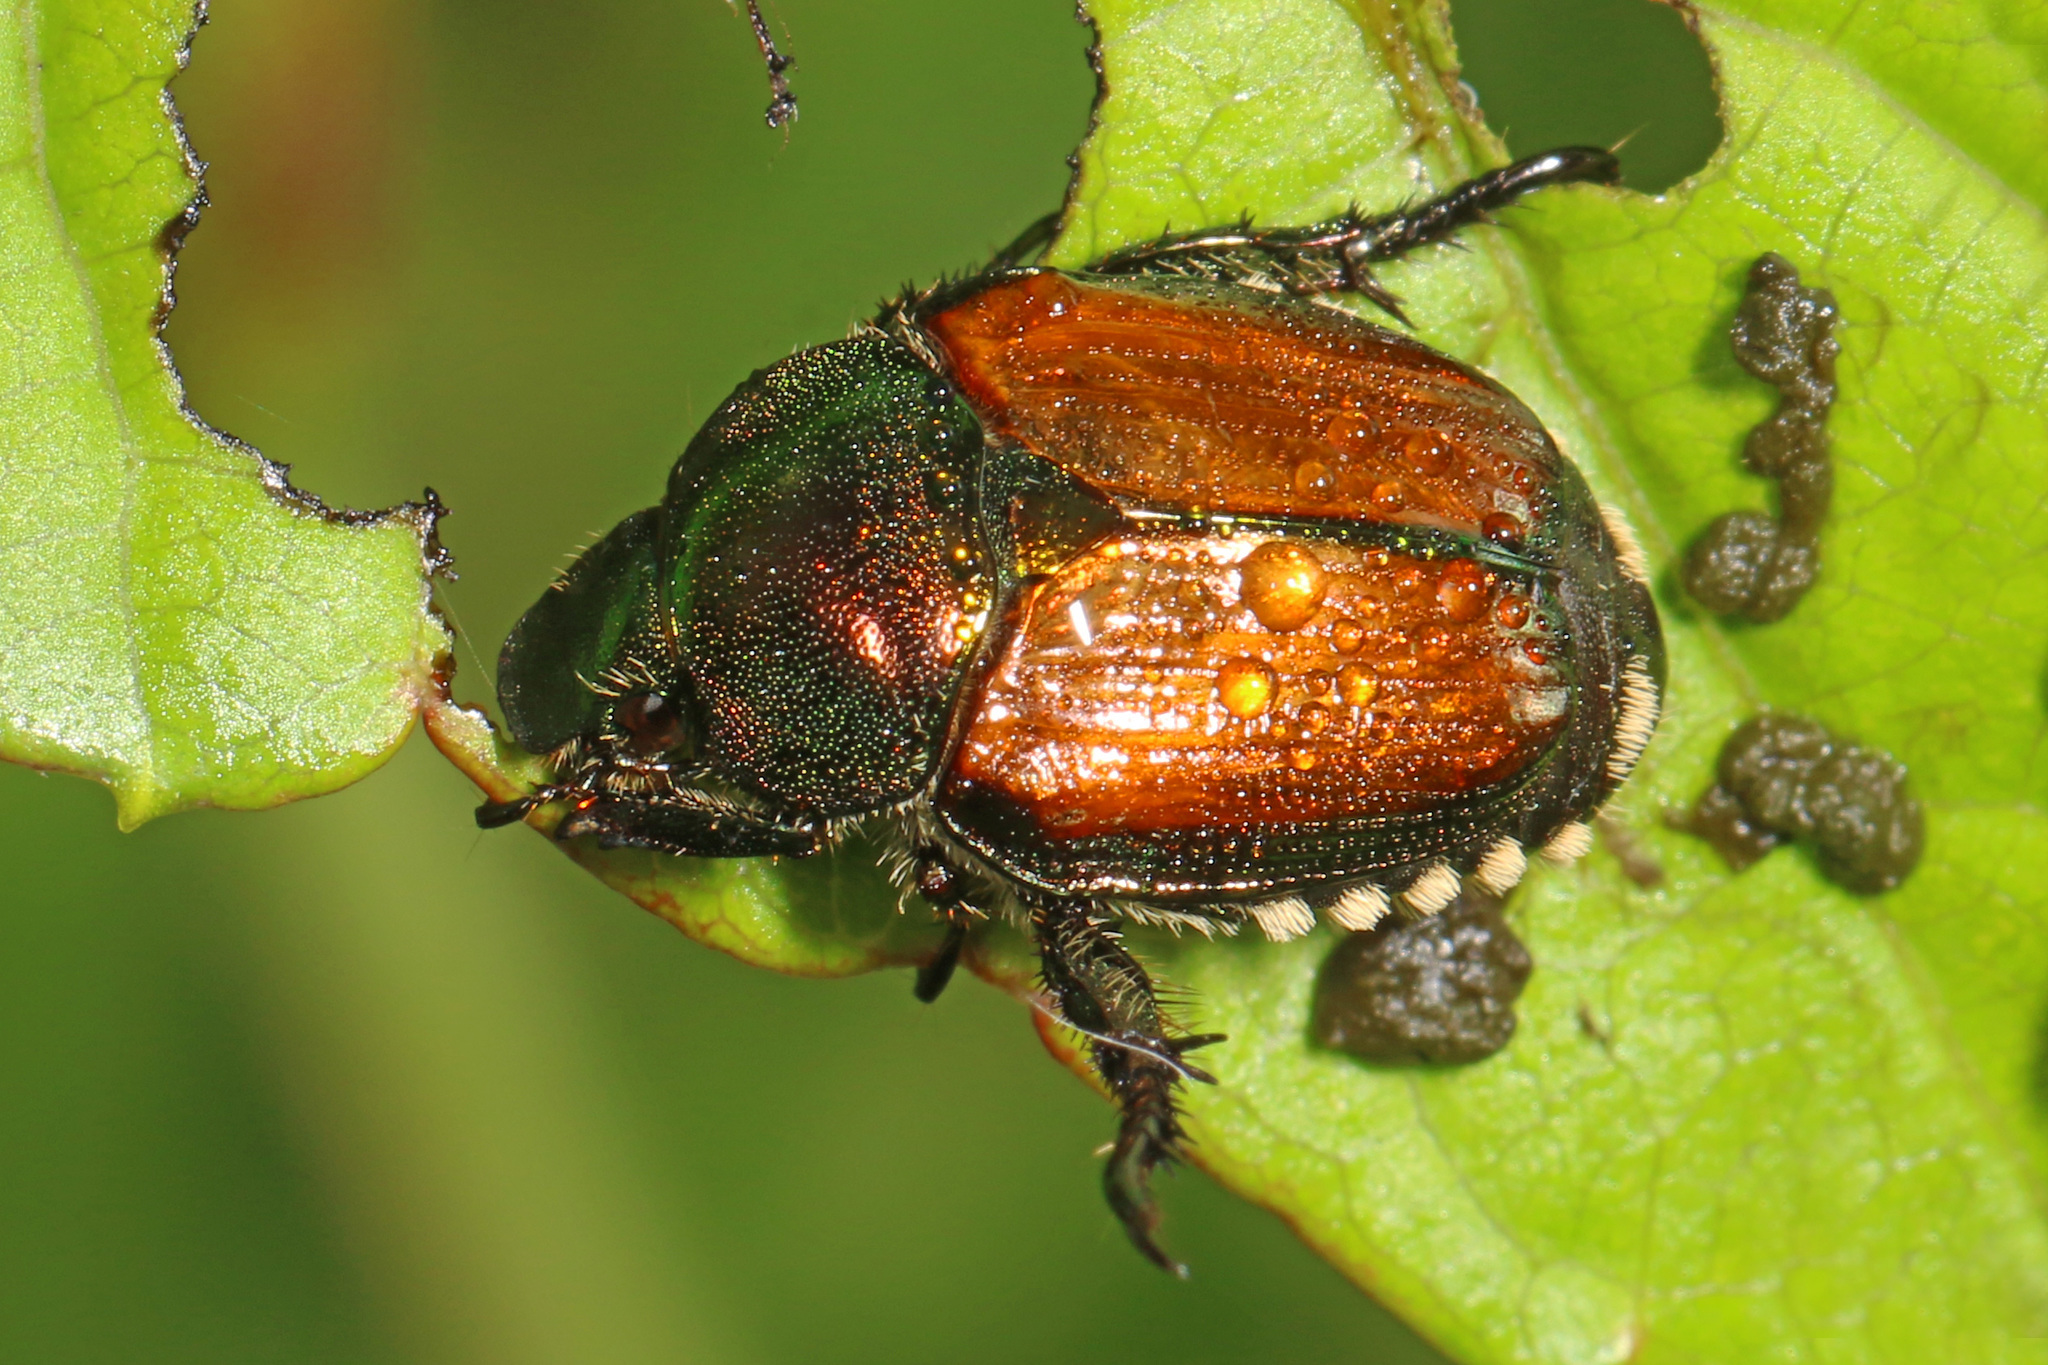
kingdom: Animalia
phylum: Arthropoda
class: Insecta
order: Coleoptera
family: Scarabaeidae
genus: Popillia
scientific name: Popillia japonica
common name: Japanese beetle
